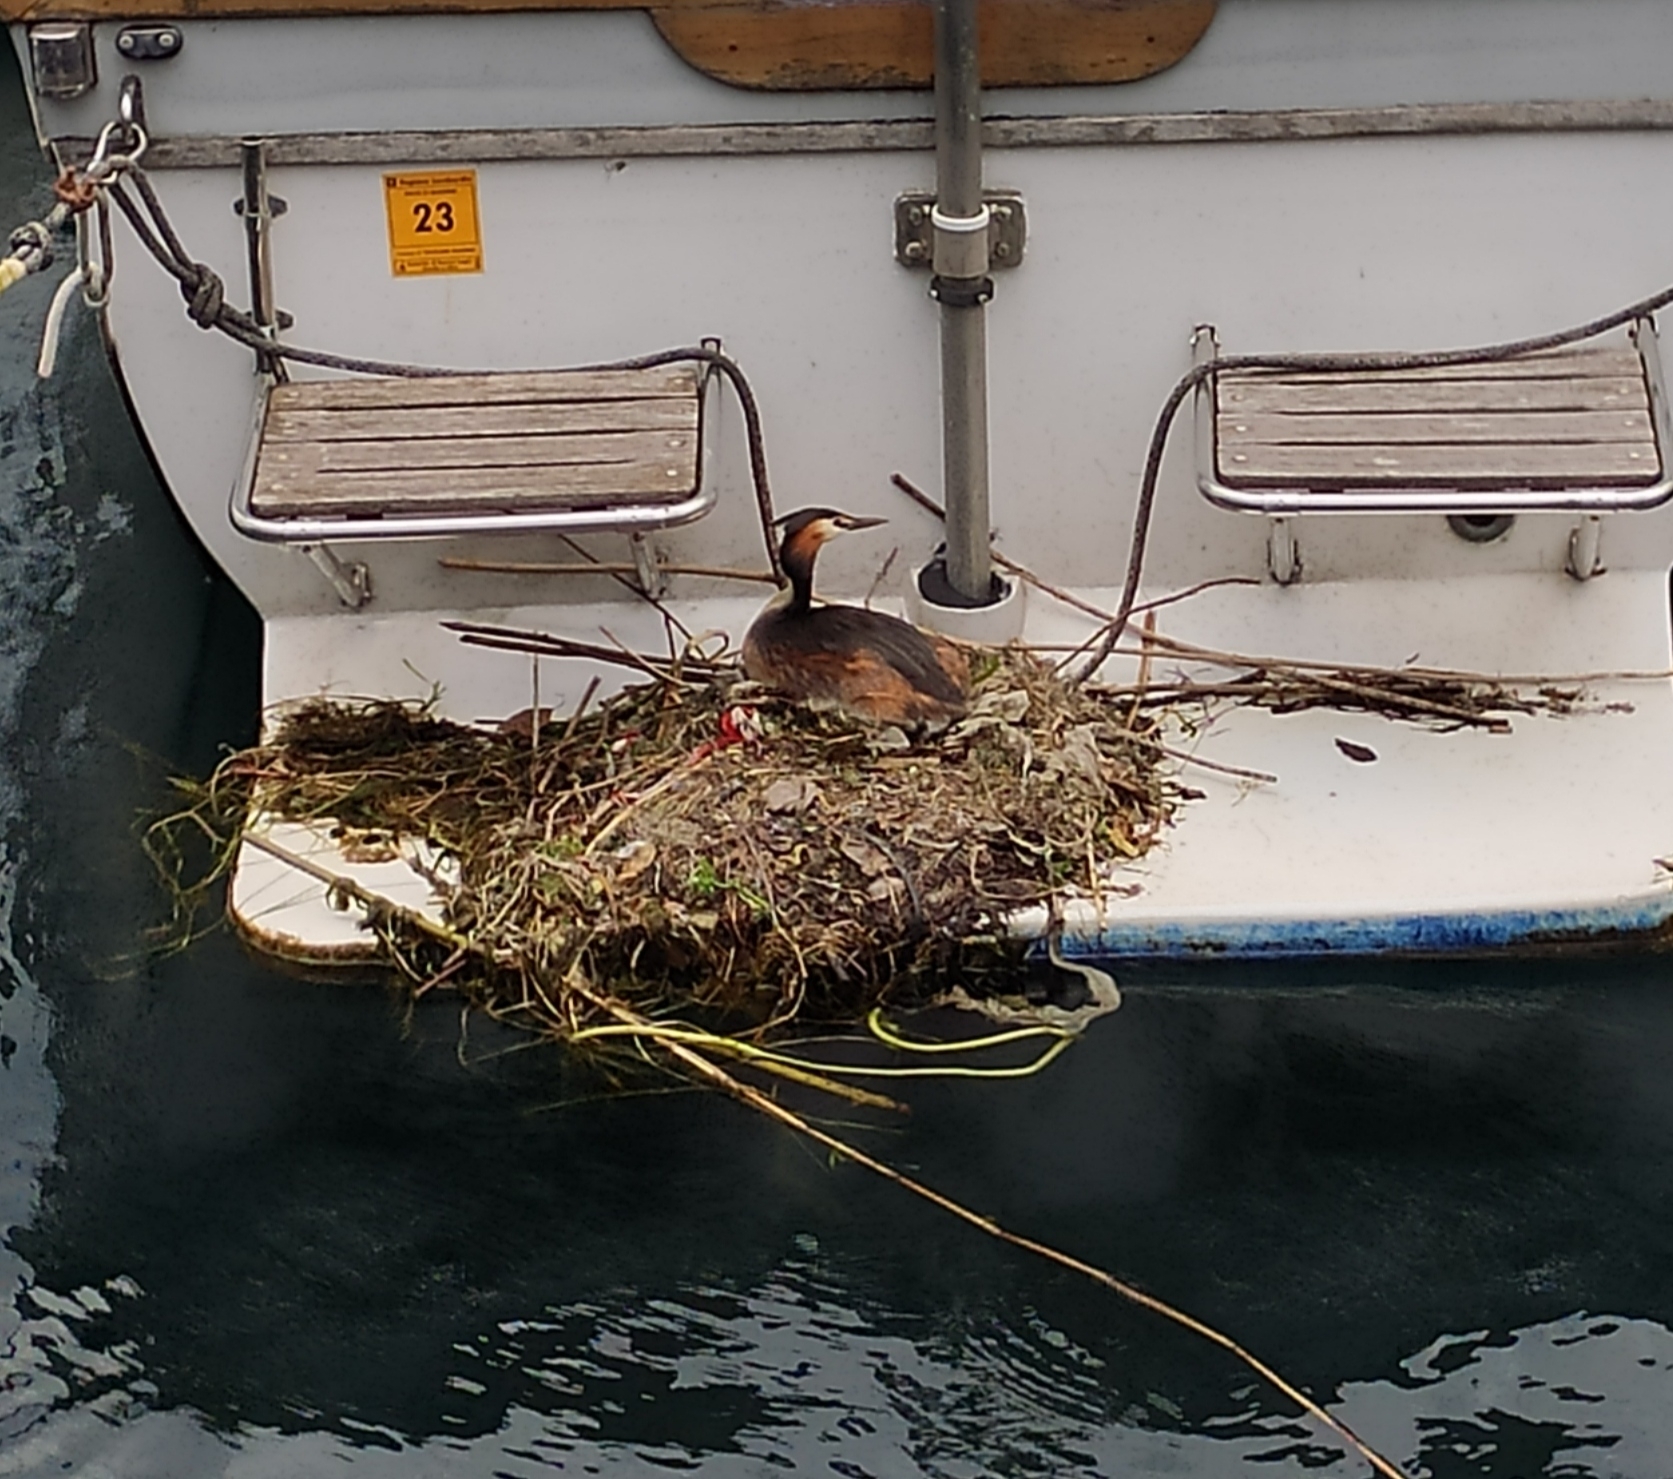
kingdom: Animalia
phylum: Chordata
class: Aves
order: Podicipediformes
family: Podicipedidae
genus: Podiceps
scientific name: Podiceps cristatus
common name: Great crested grebe
